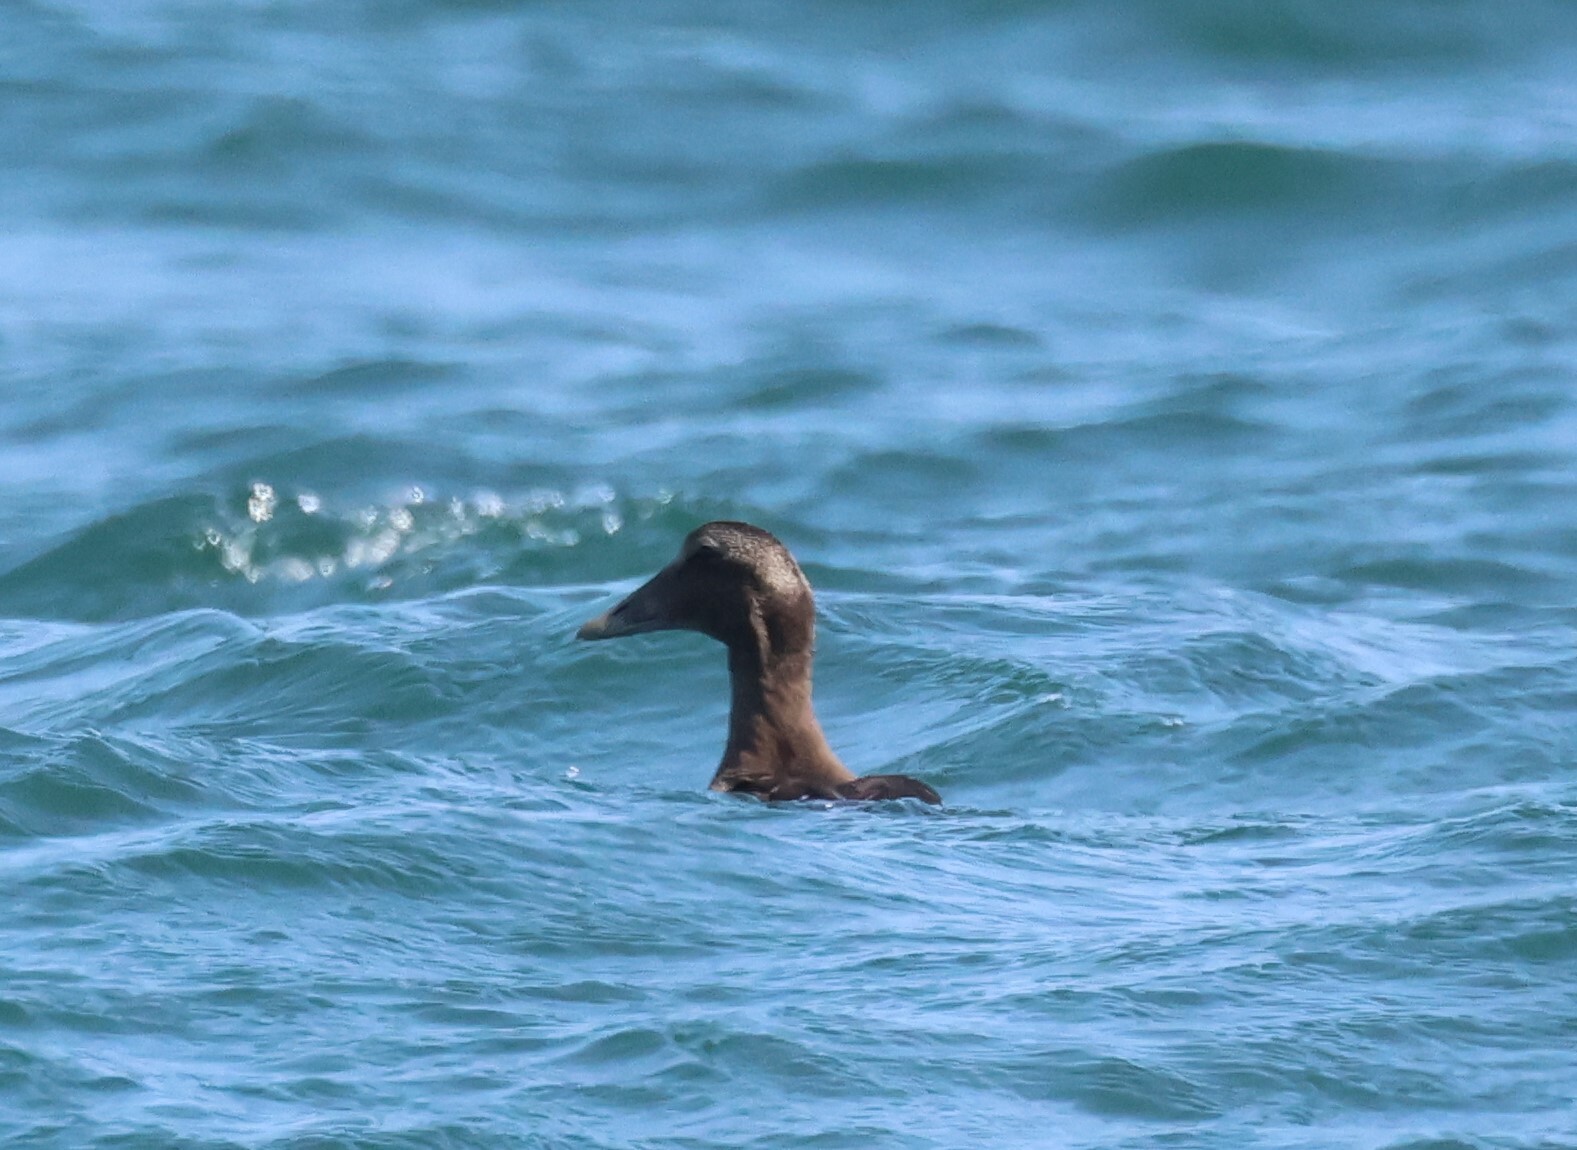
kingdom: Animalia
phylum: Chordata
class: Aves
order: Anseriformes
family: Anatidae
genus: Somateria
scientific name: Somateria mollissima
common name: Common eider
